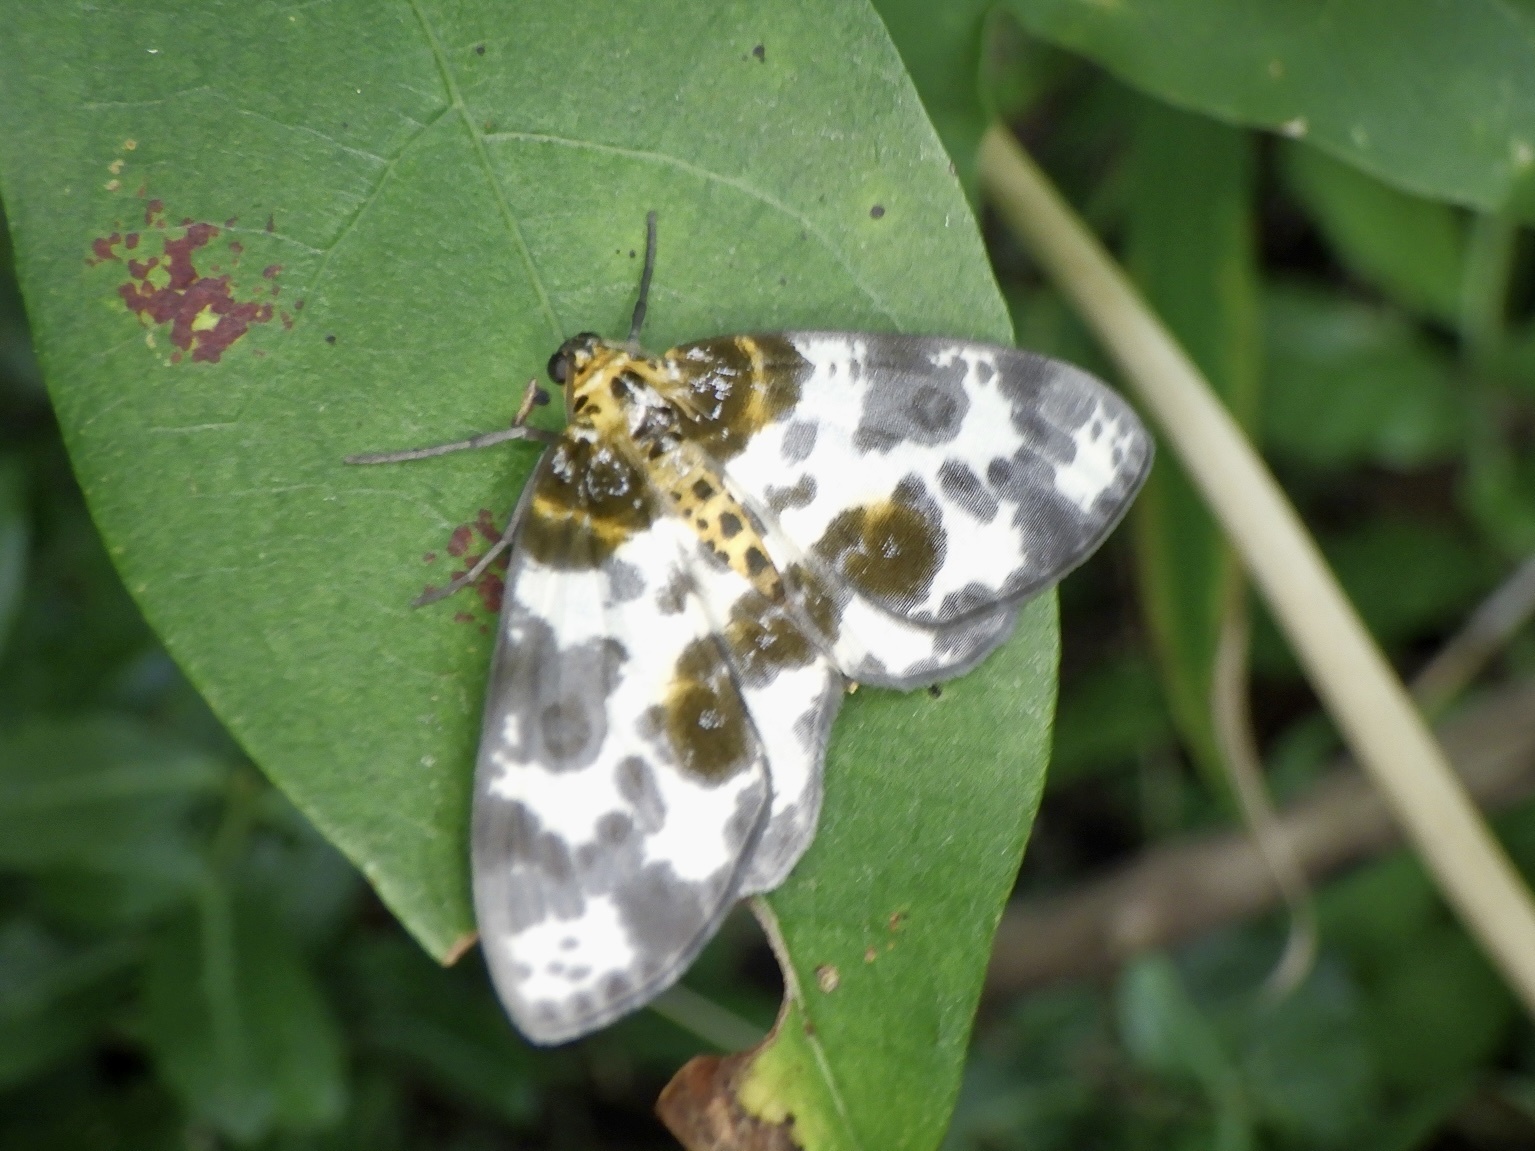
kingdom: Animalia
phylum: Arthropoda
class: Insecta
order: Lepidoptera
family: Geometridae
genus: Abraxas
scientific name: Abraxas niphonibia
